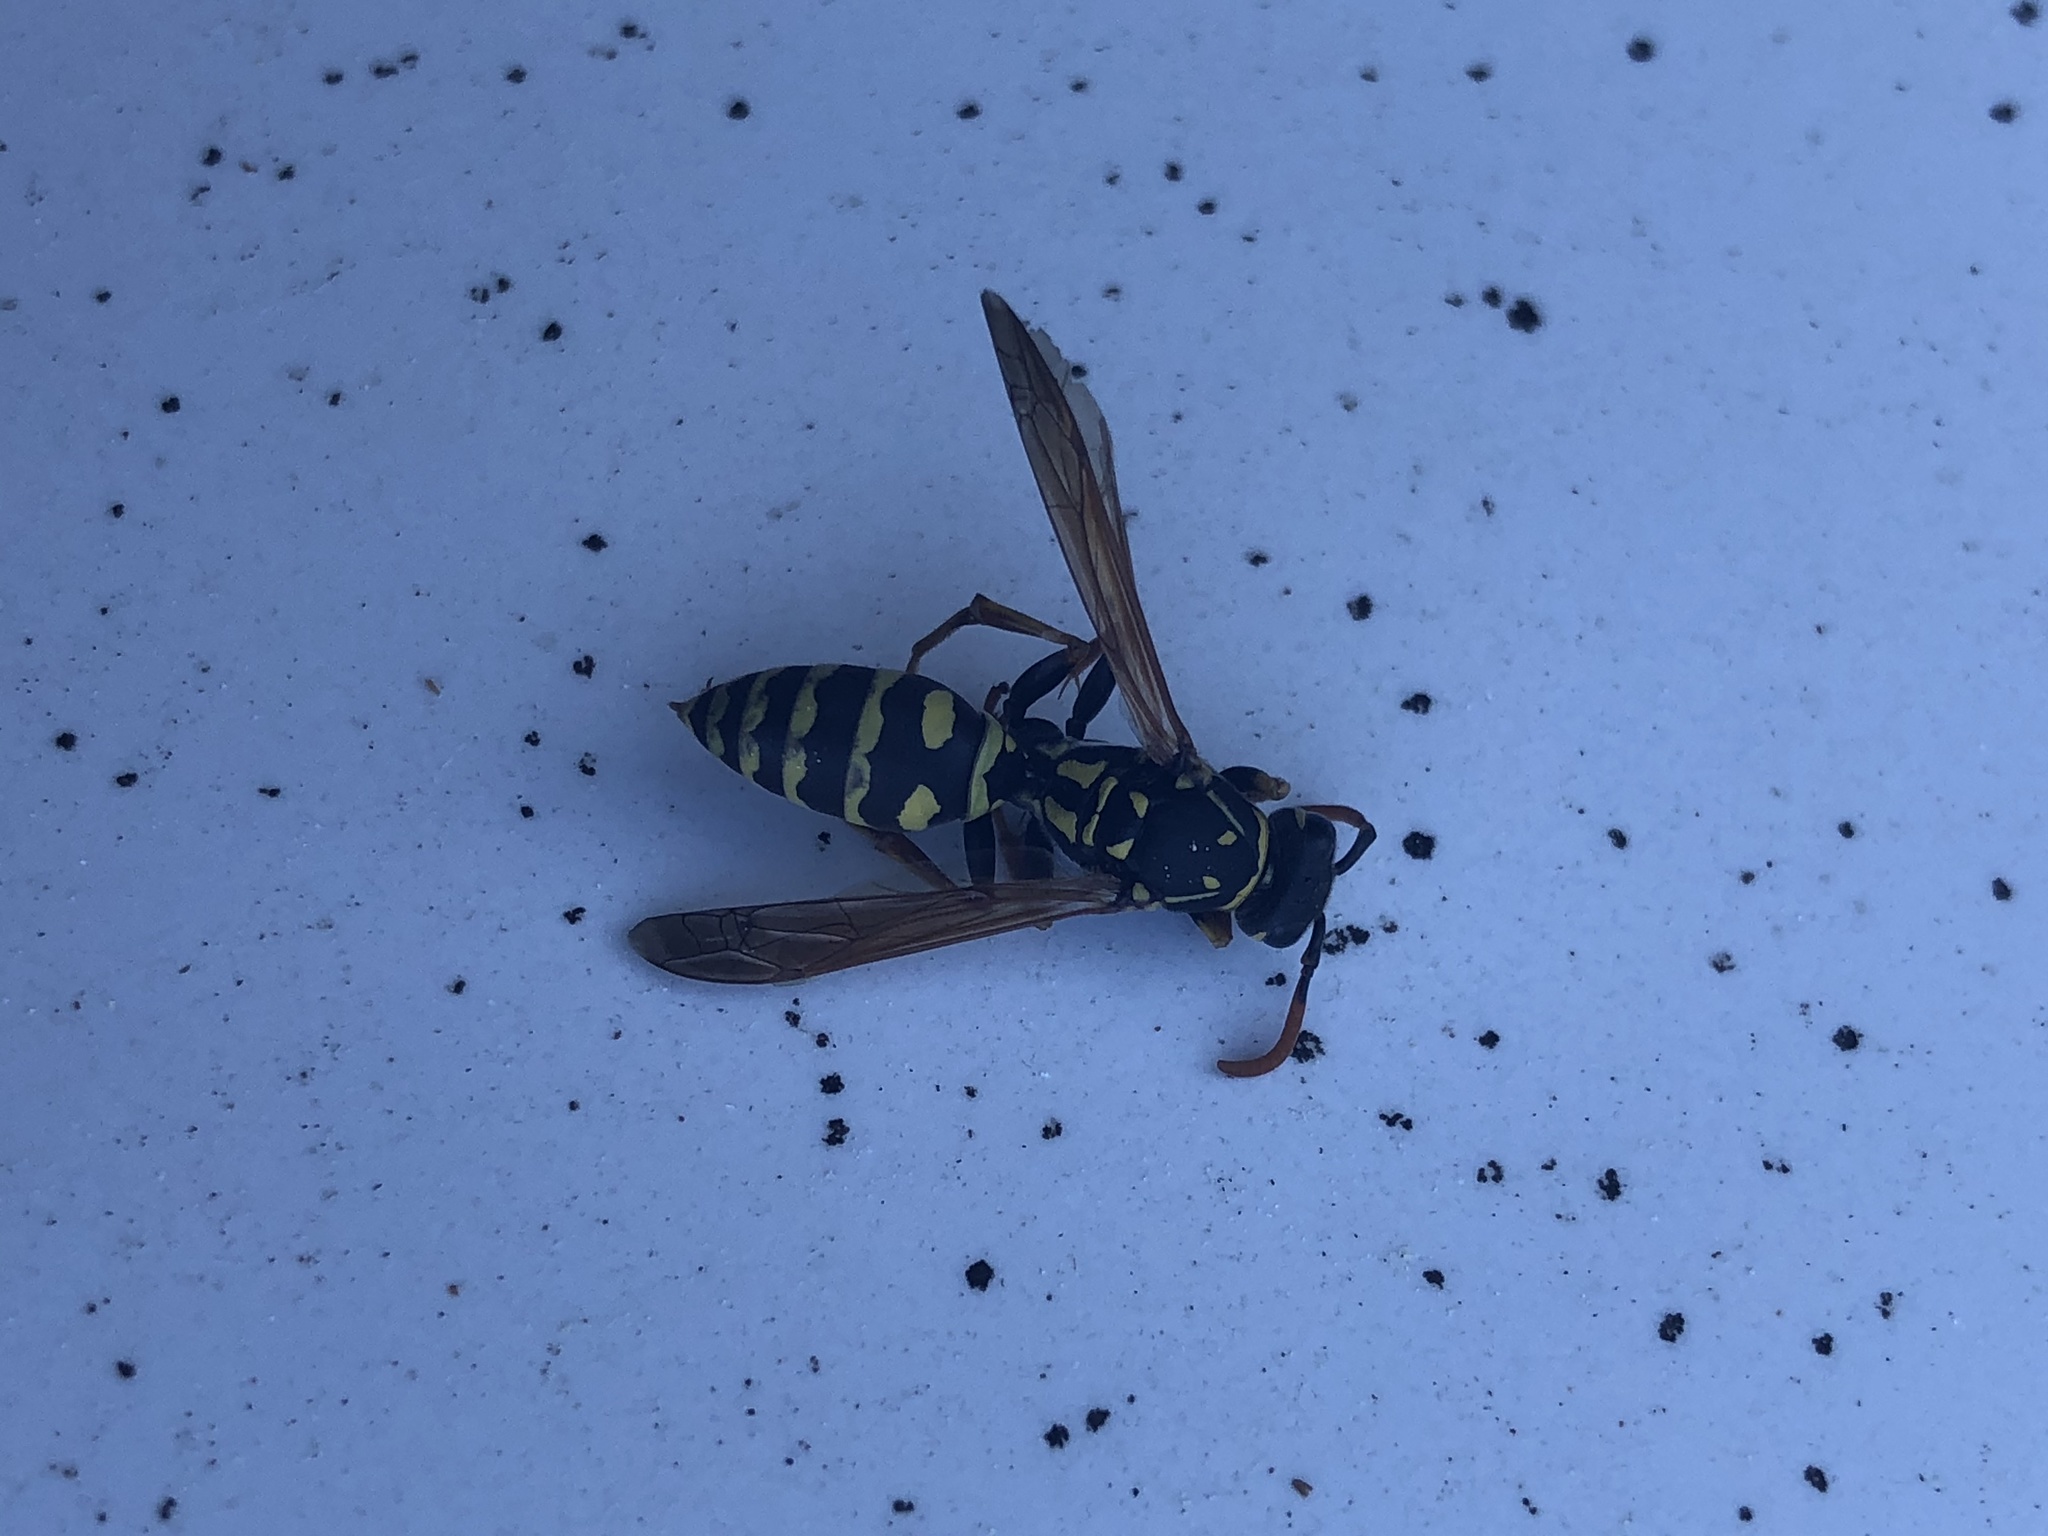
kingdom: Animalia
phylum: Arthropoda
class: Insecta
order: Hymenoptera
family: Eumenidae
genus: Polistes
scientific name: Polistes dominula
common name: Paper wasp
